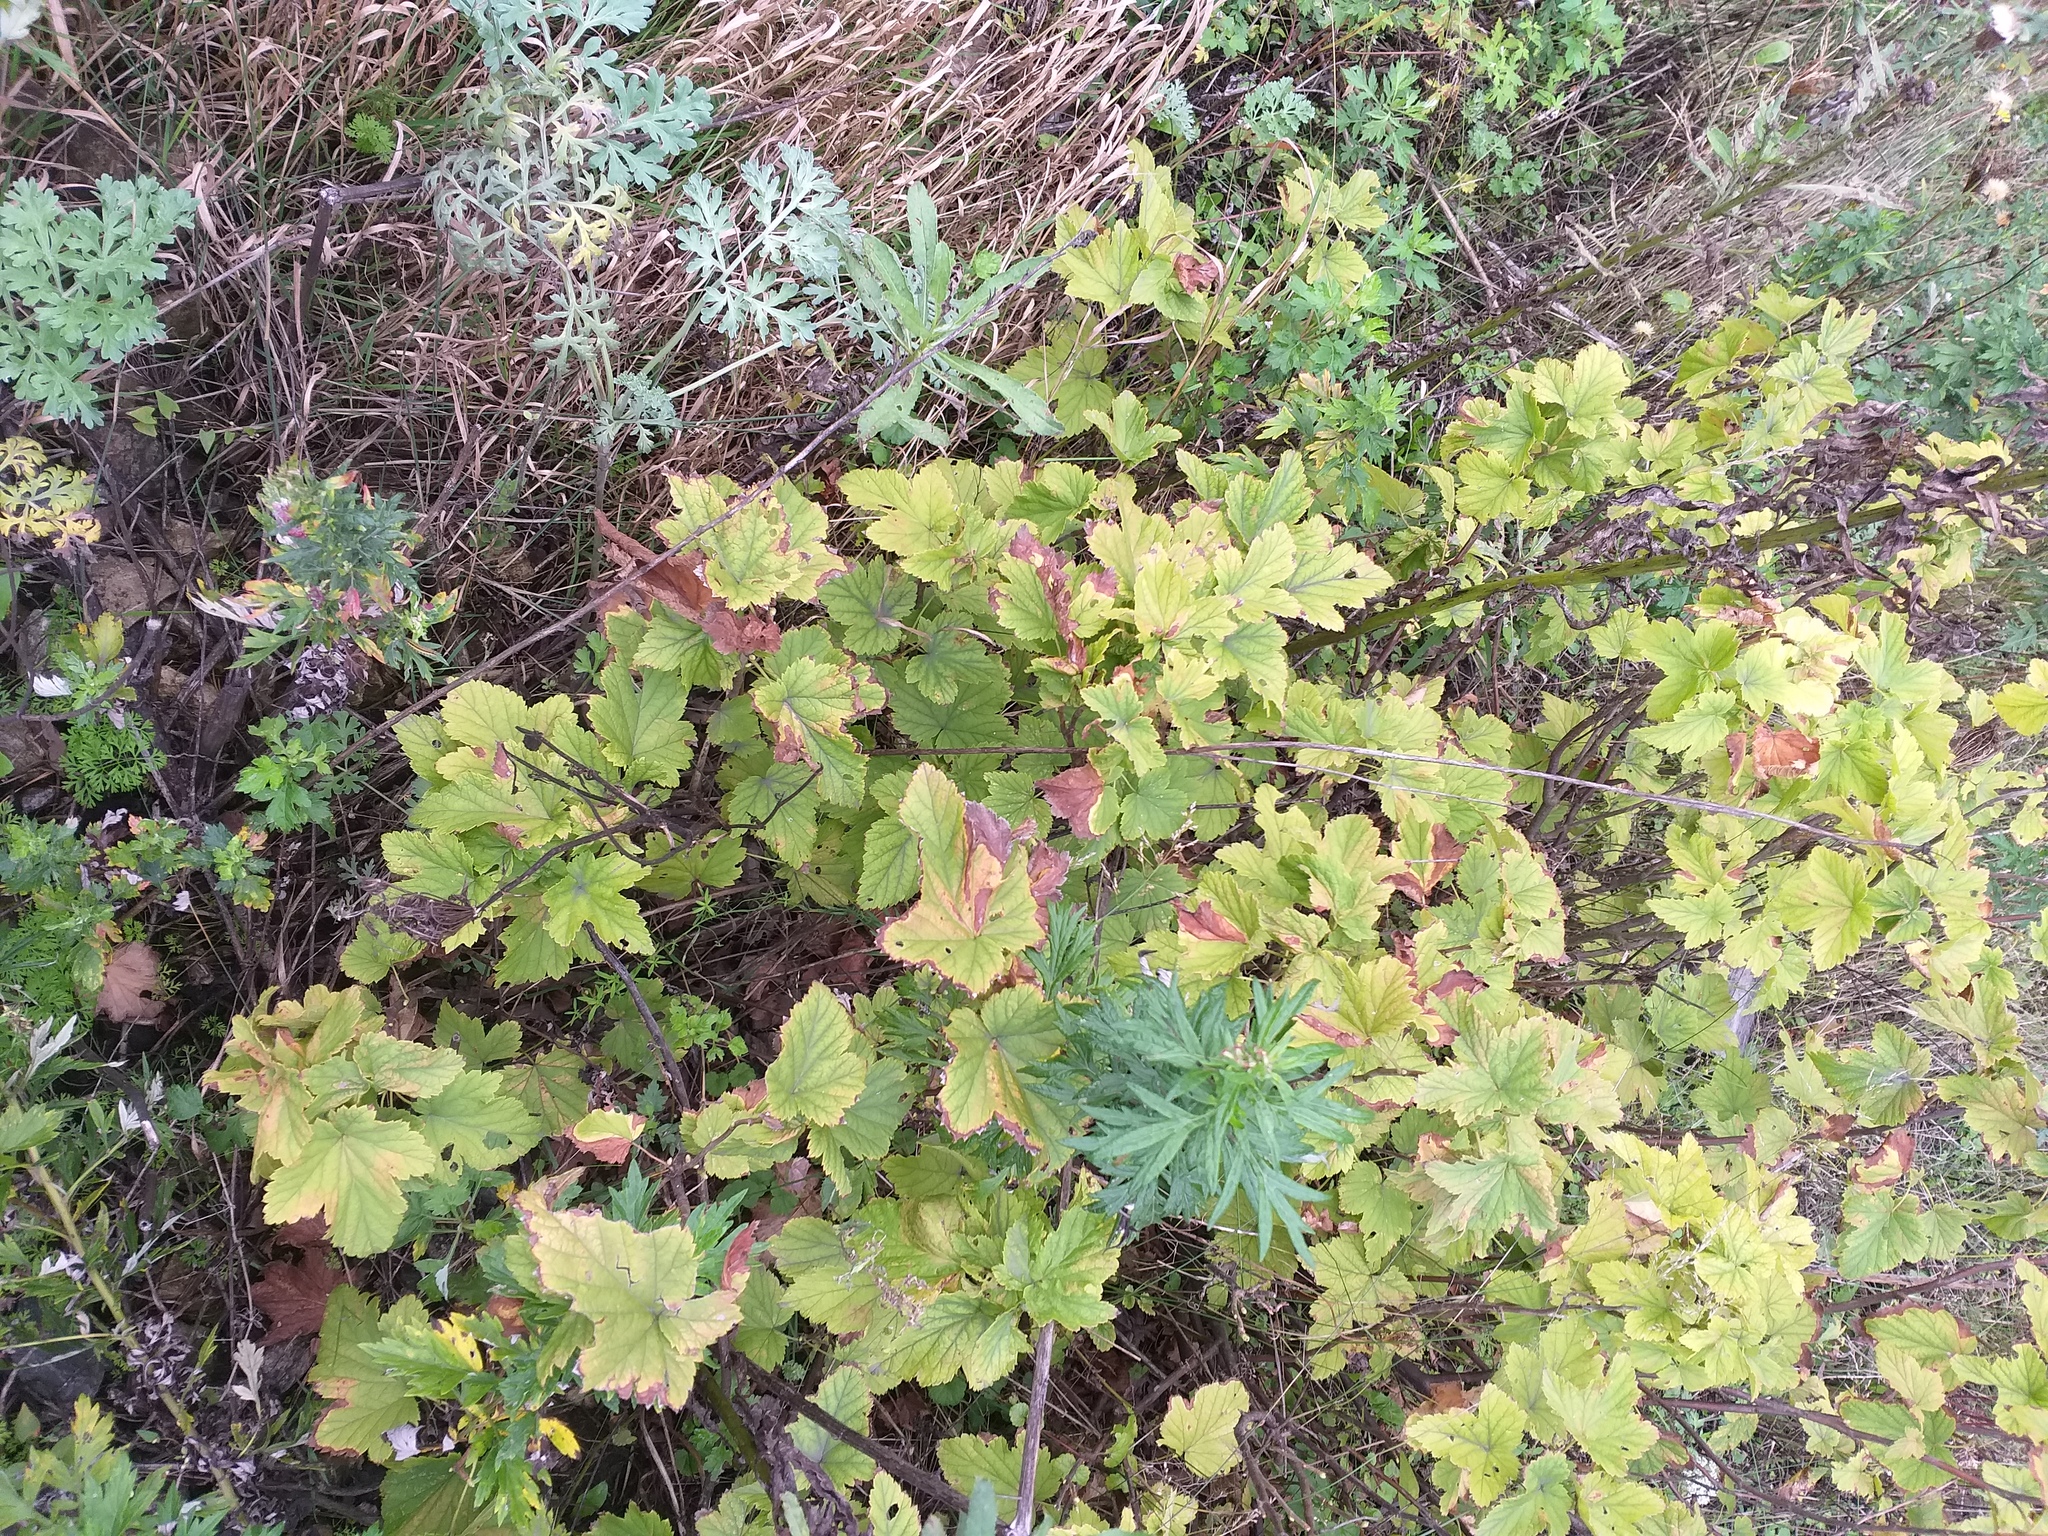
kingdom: Plantae
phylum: Tracheophyta
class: Magnoliopsida
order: Saxifragales
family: Grossulariaceae
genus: Ribes
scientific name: Ribes nigrum
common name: Black currant
